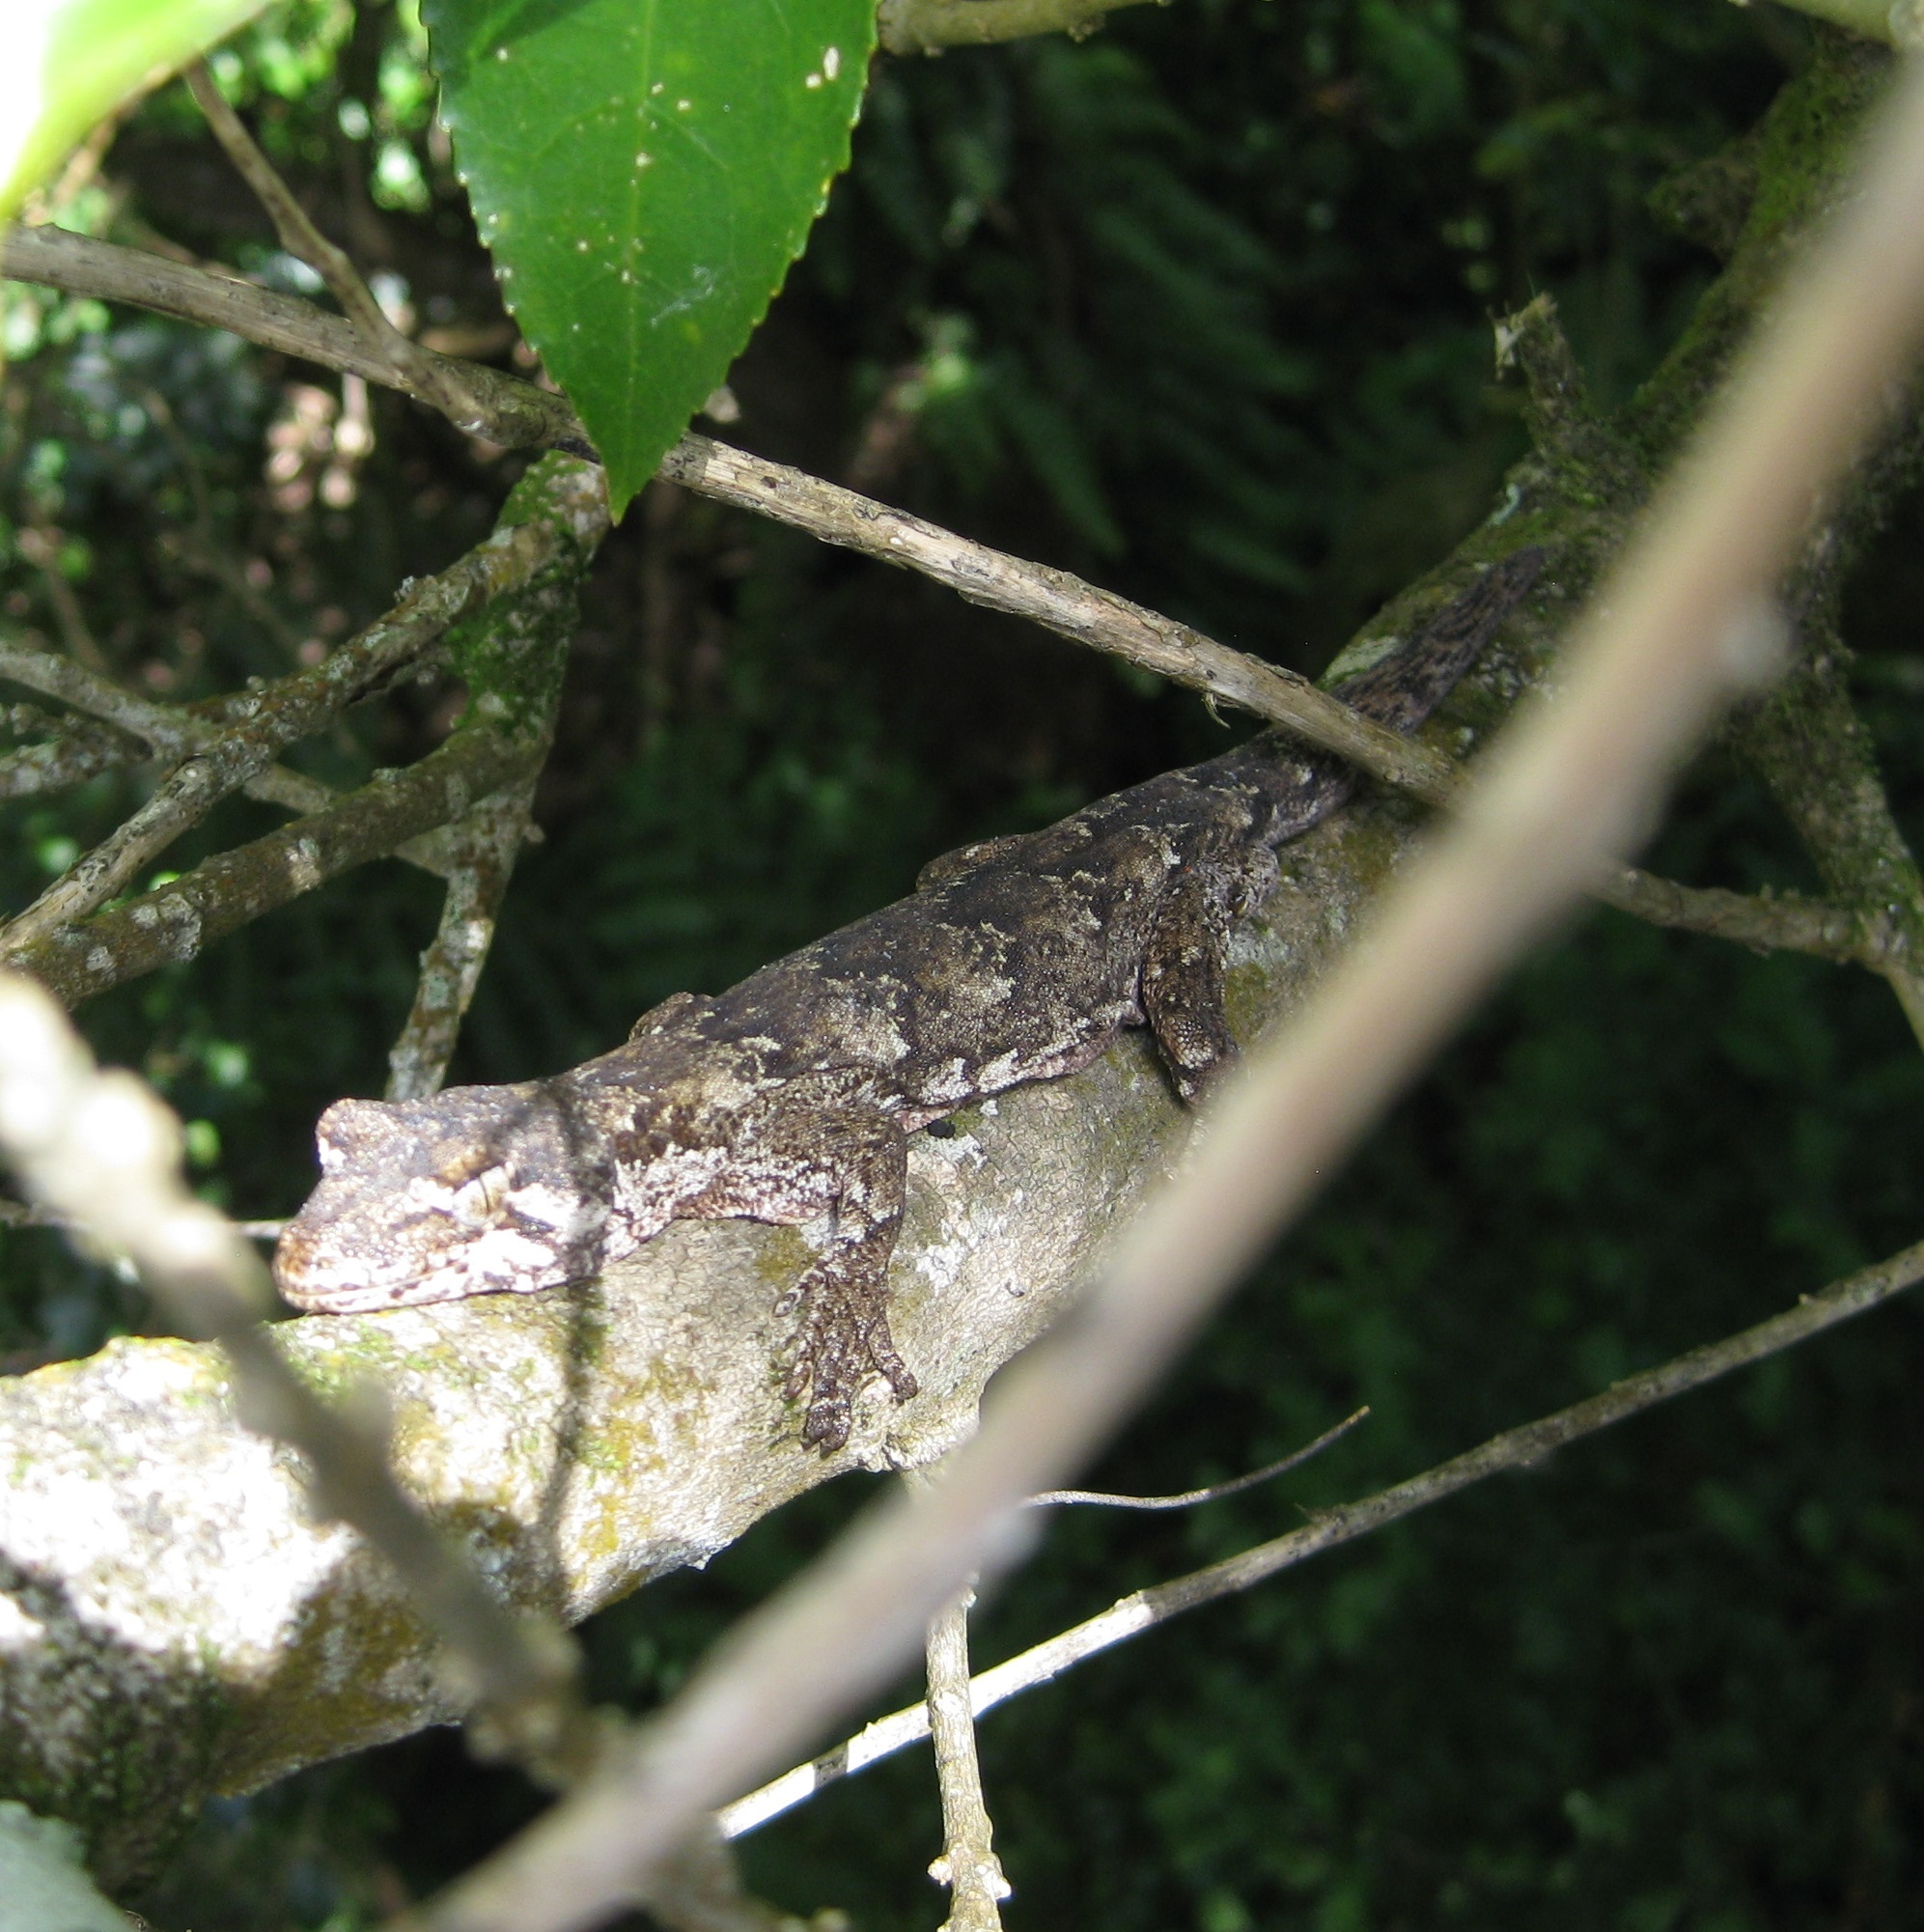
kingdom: Animalia
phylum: Chordata
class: Squamata
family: Diplodactylidae
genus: Mokopirirakau
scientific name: Mokopirirakau
